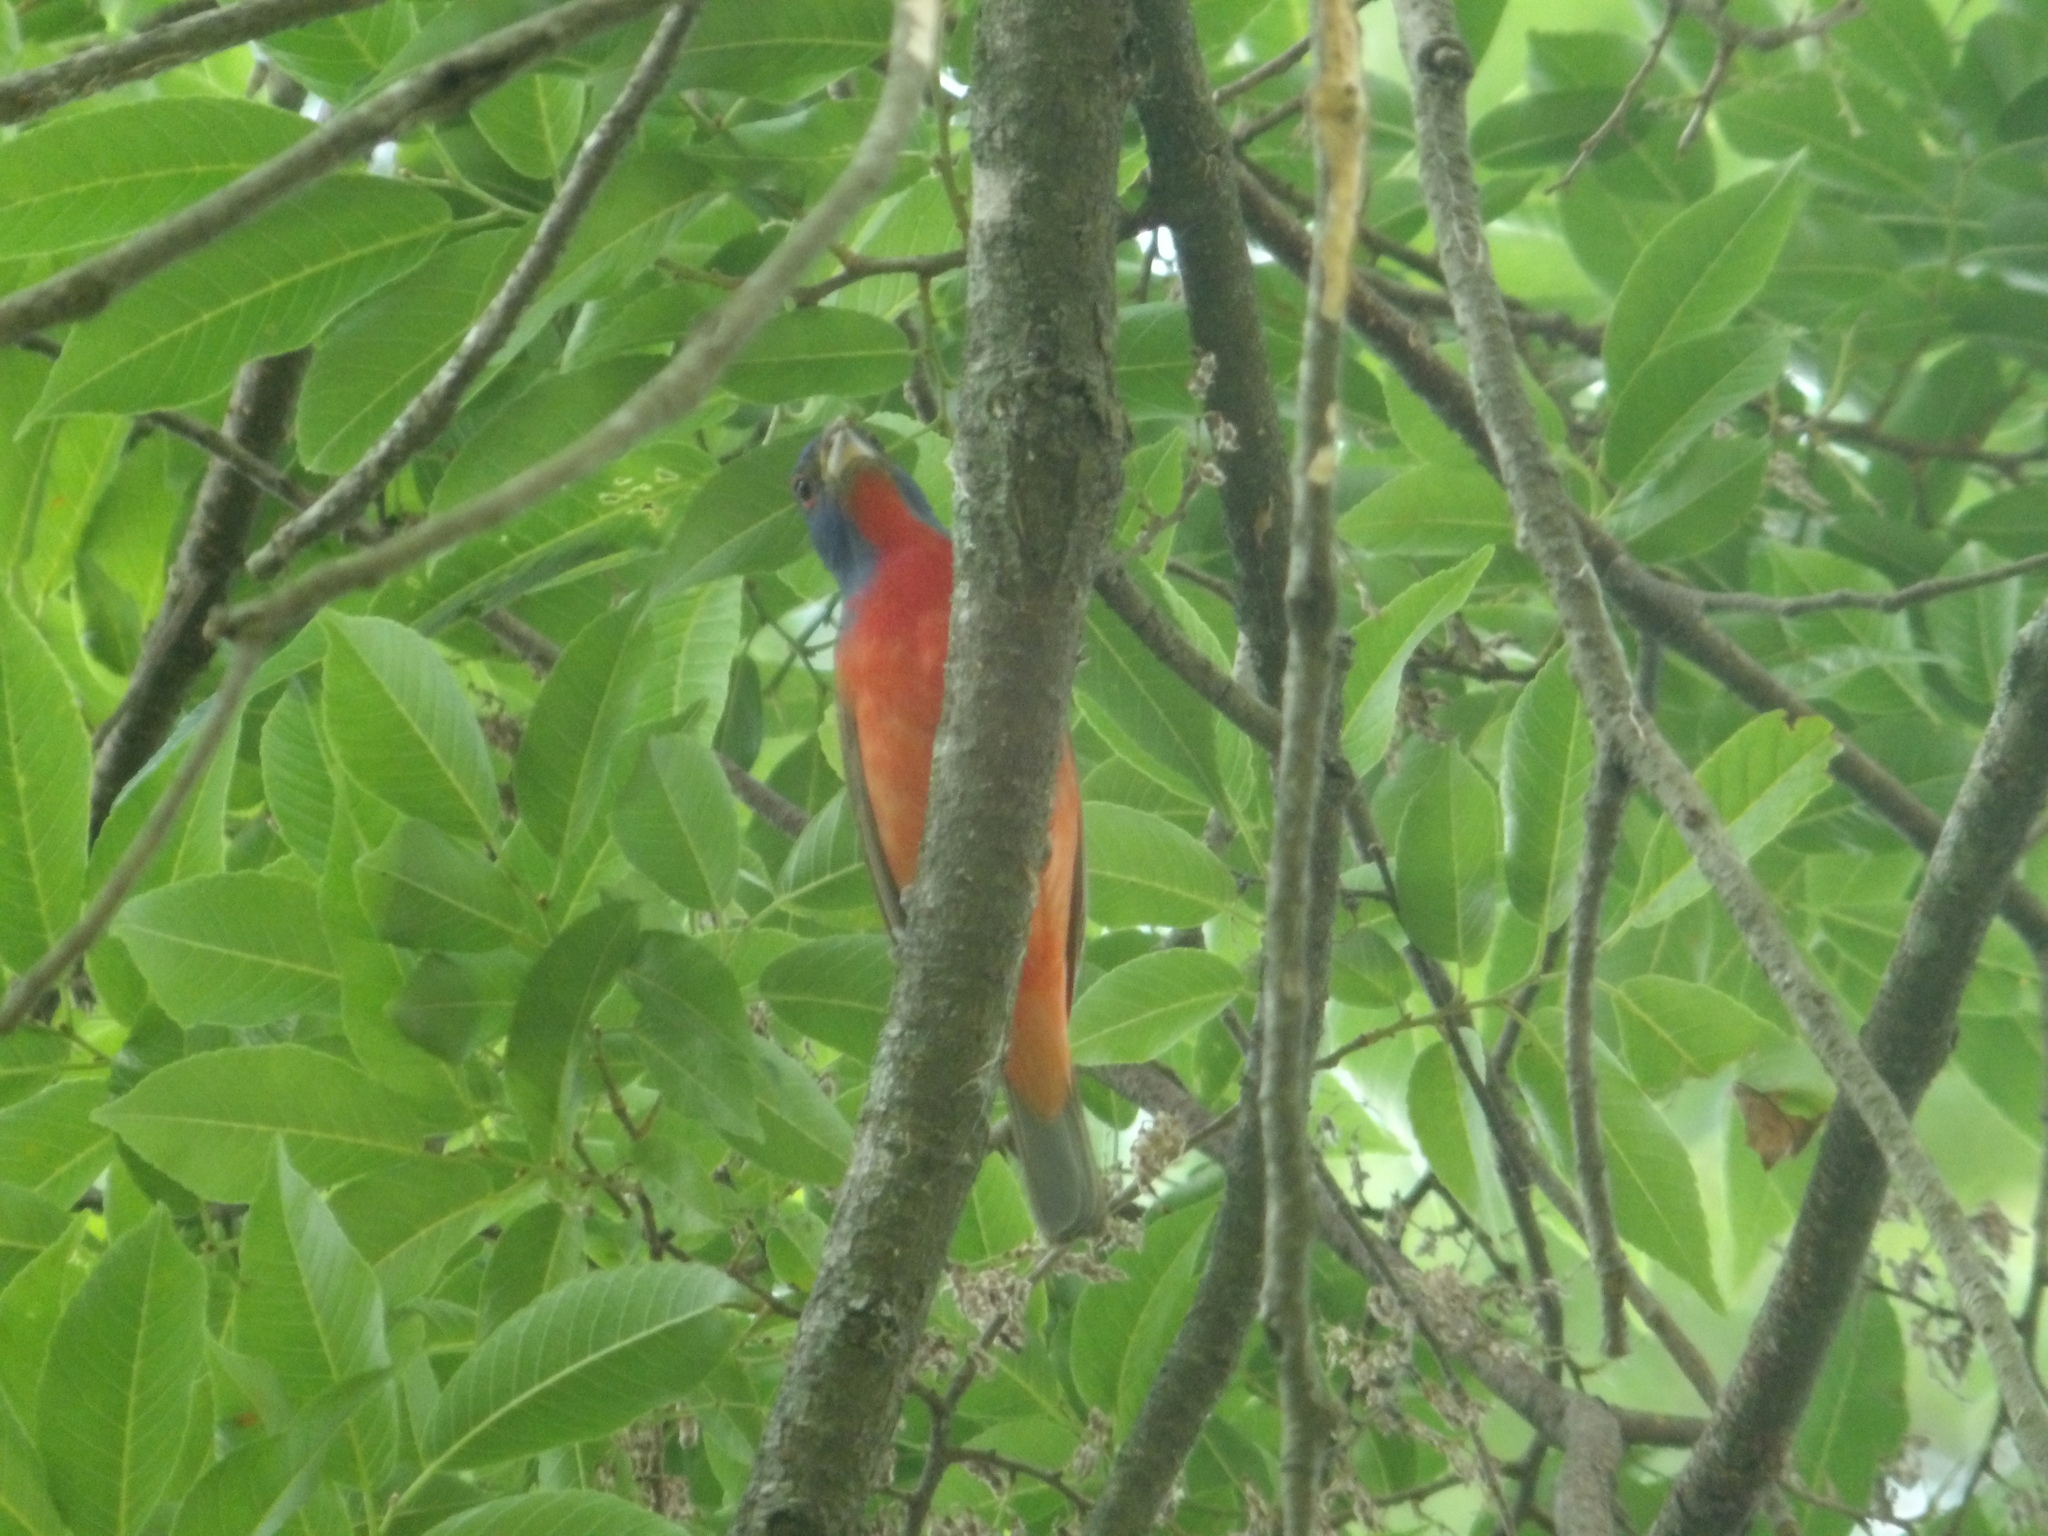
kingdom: Animalia
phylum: Chordata
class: Aves
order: Passeriformes
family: Cardinalidae
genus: Passerina
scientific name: Passerina ciris
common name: Painted bunting
